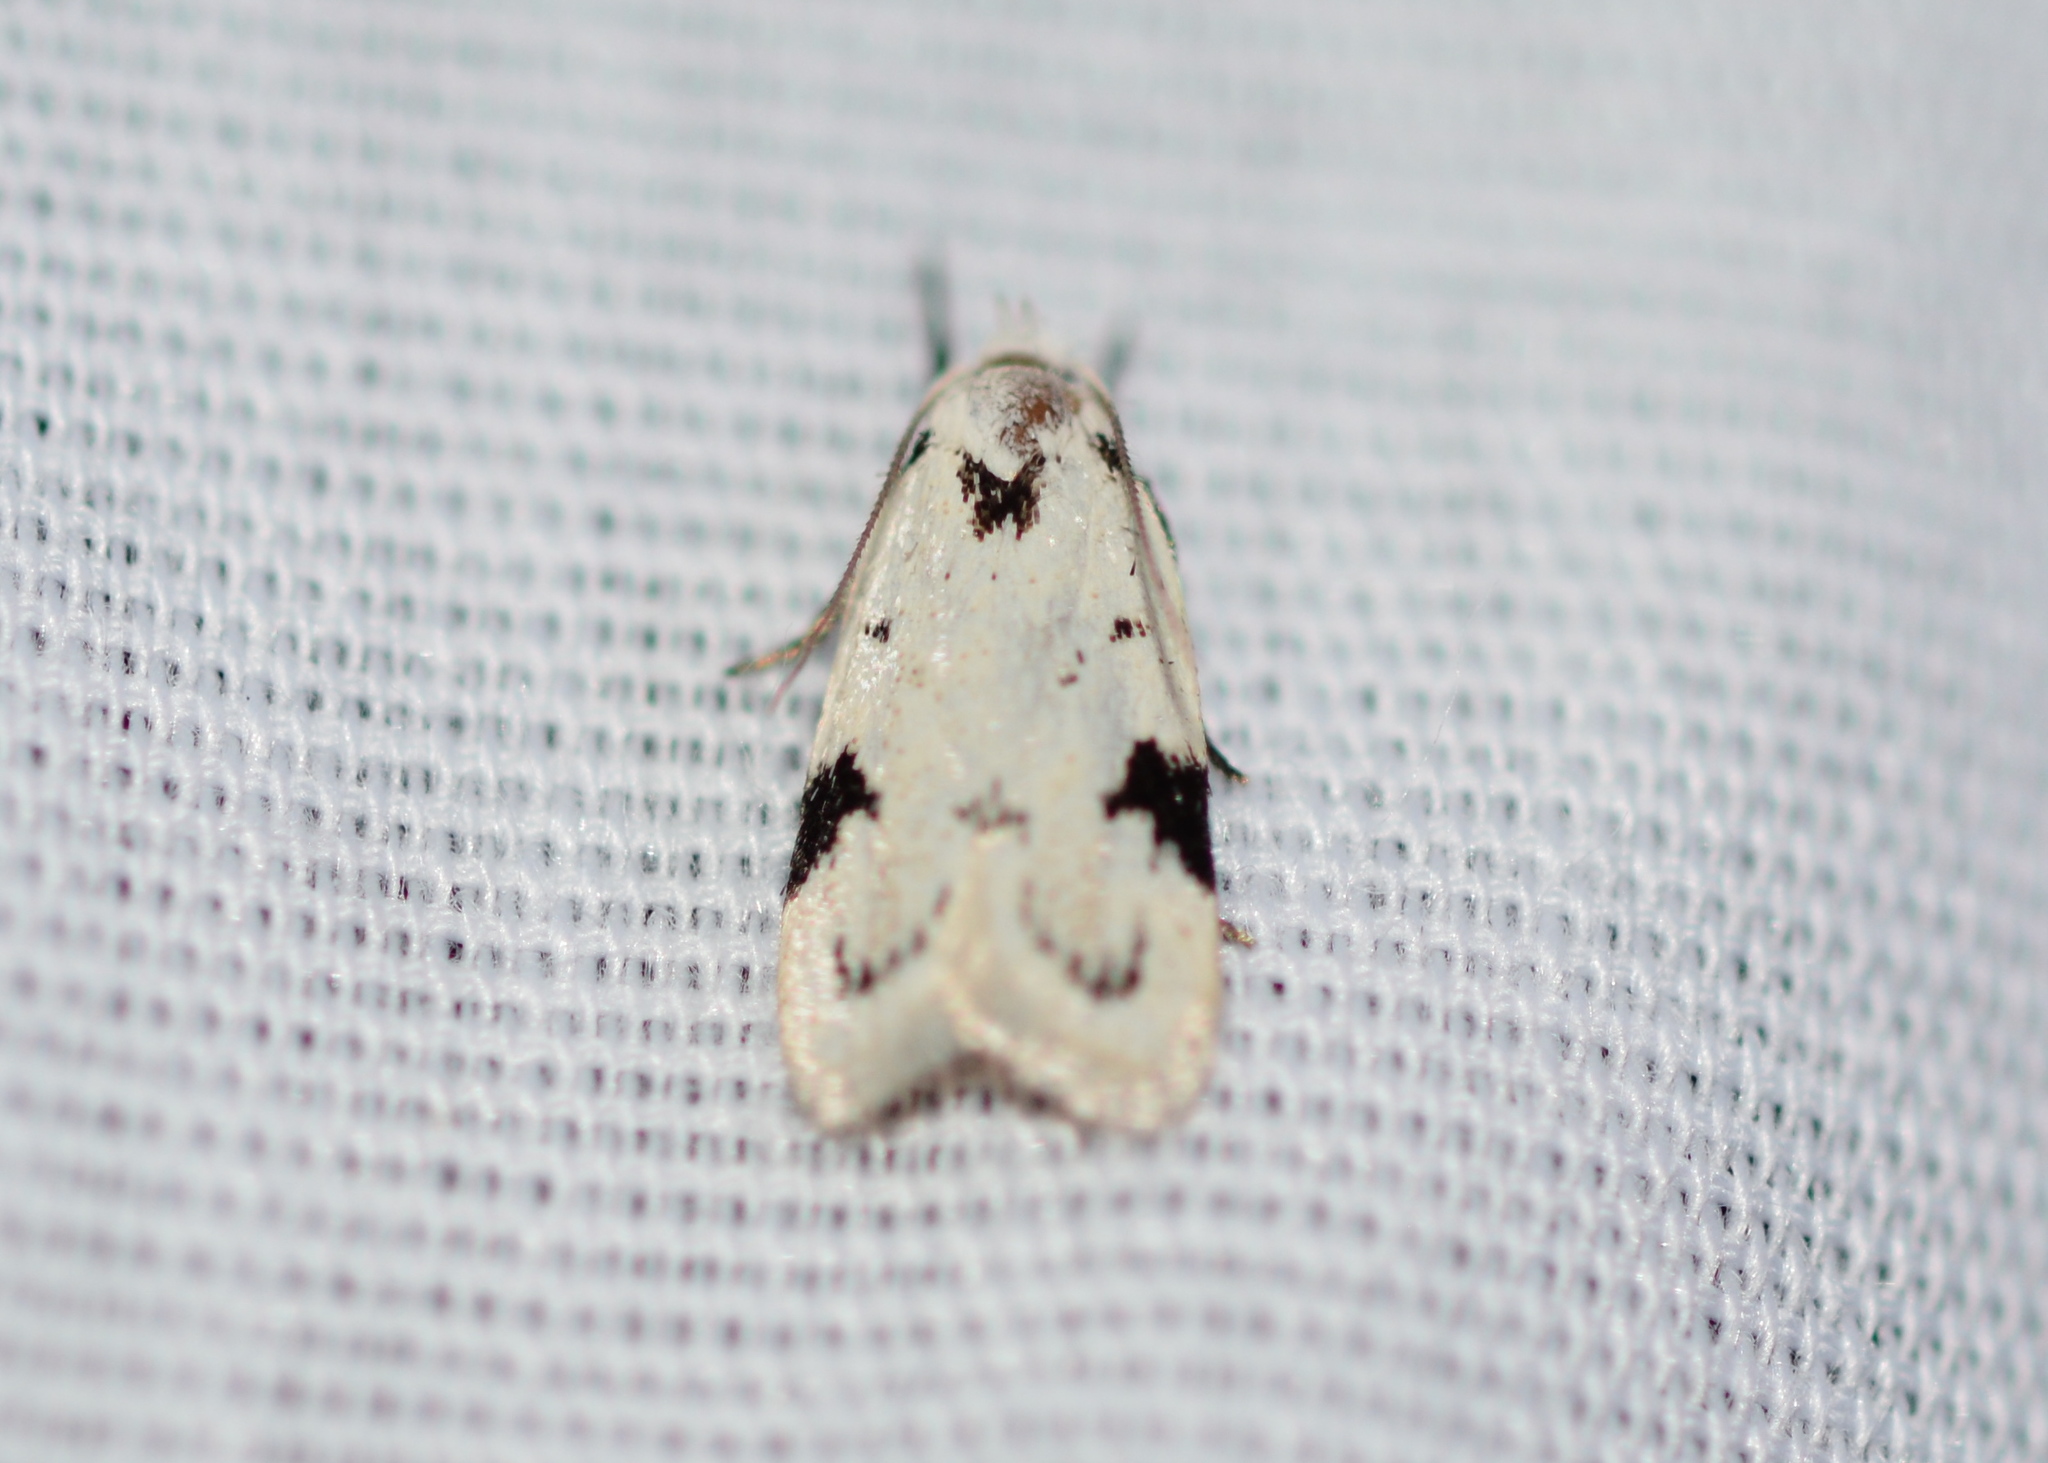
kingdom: Animalia
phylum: Arthropoda
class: Insecta
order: Lepidoptera
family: Oecophoridae
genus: Inga
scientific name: Inga sparsiciliella
